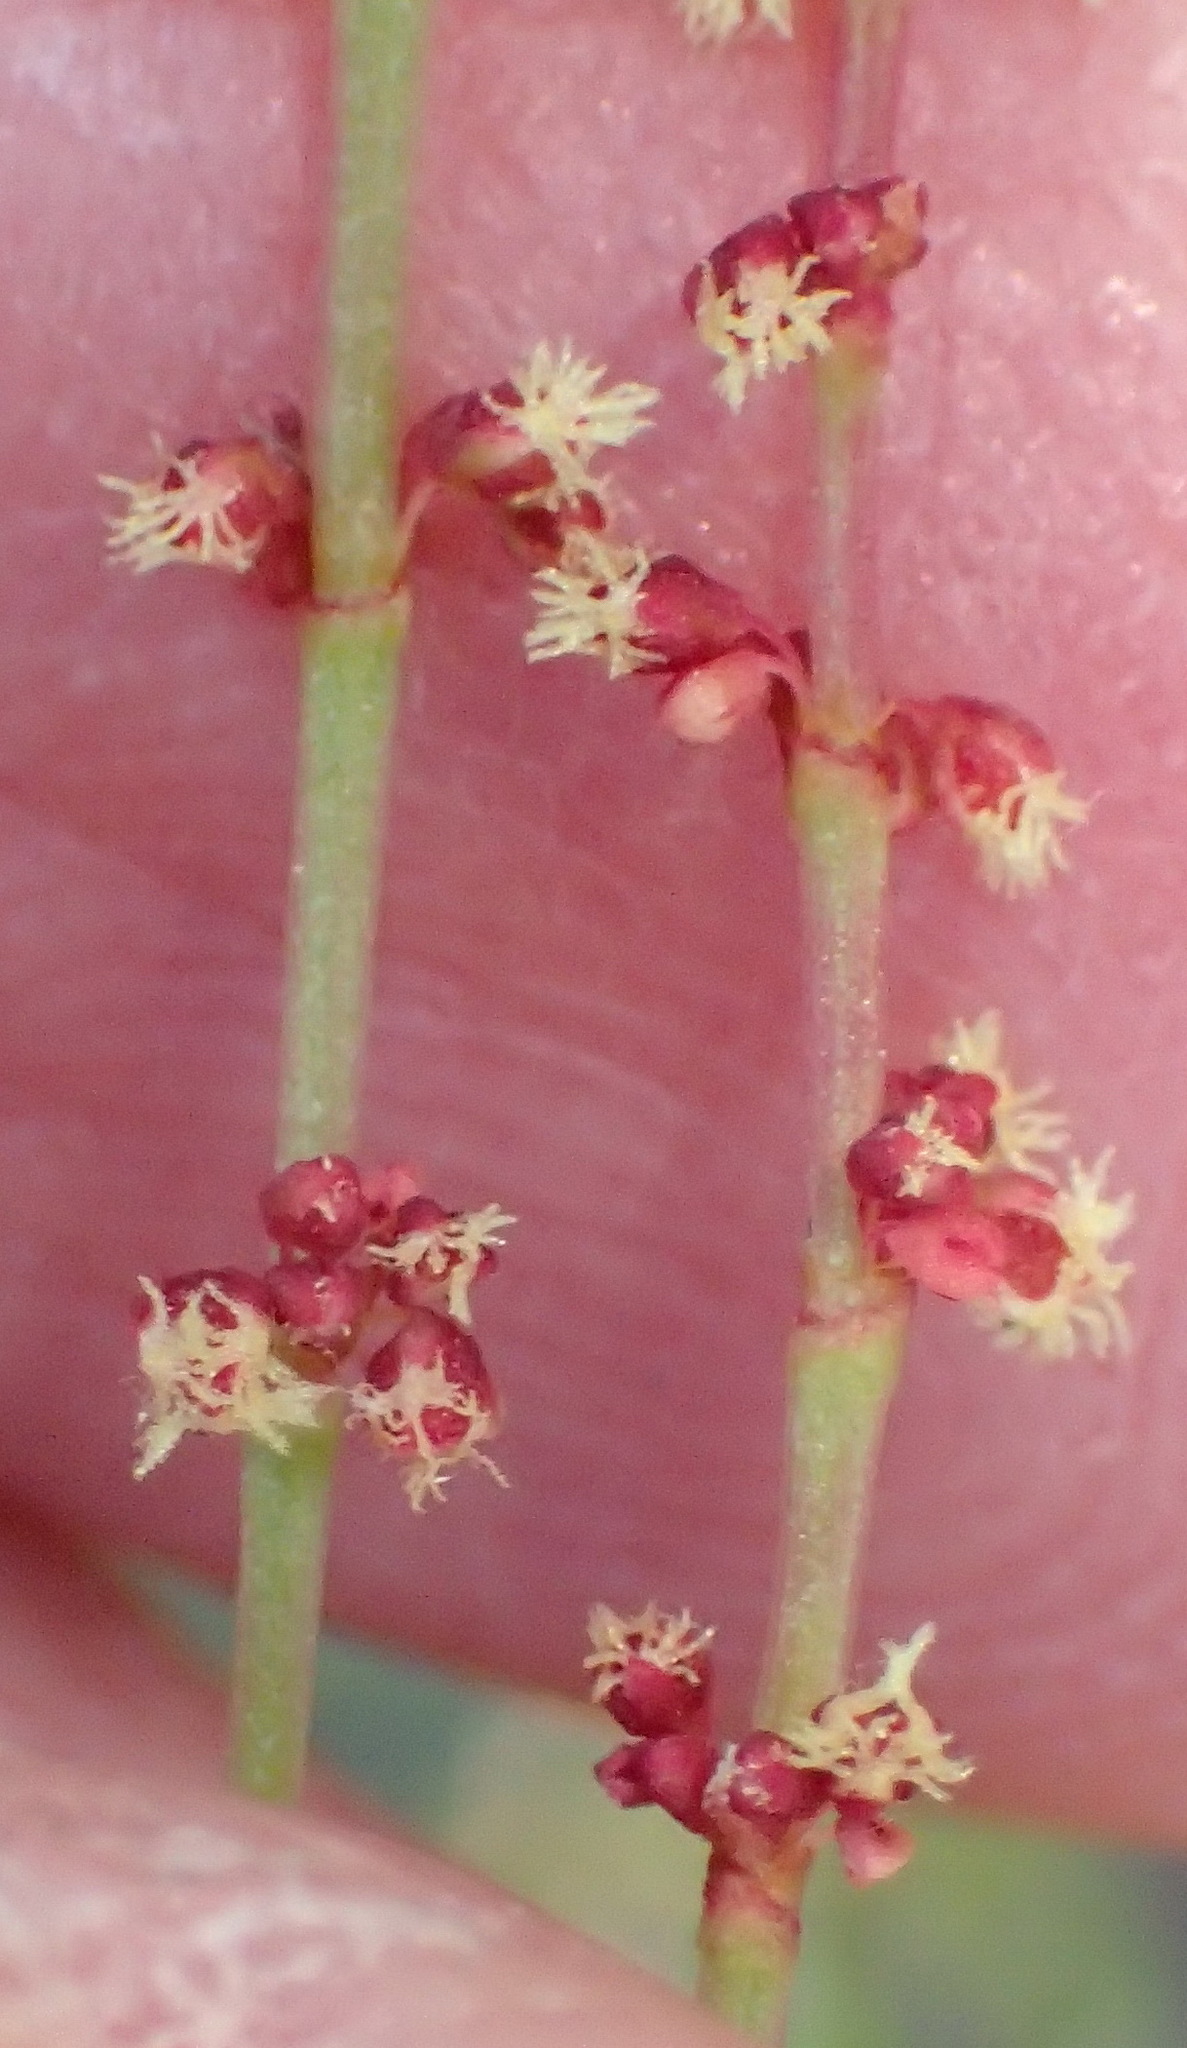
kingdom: Plantae
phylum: Tracheophyta
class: Magnoliopsida
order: Caryophyllales
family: Polygonaceae
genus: Rumex
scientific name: Rumex acetosella
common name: Common sheep sorrel
